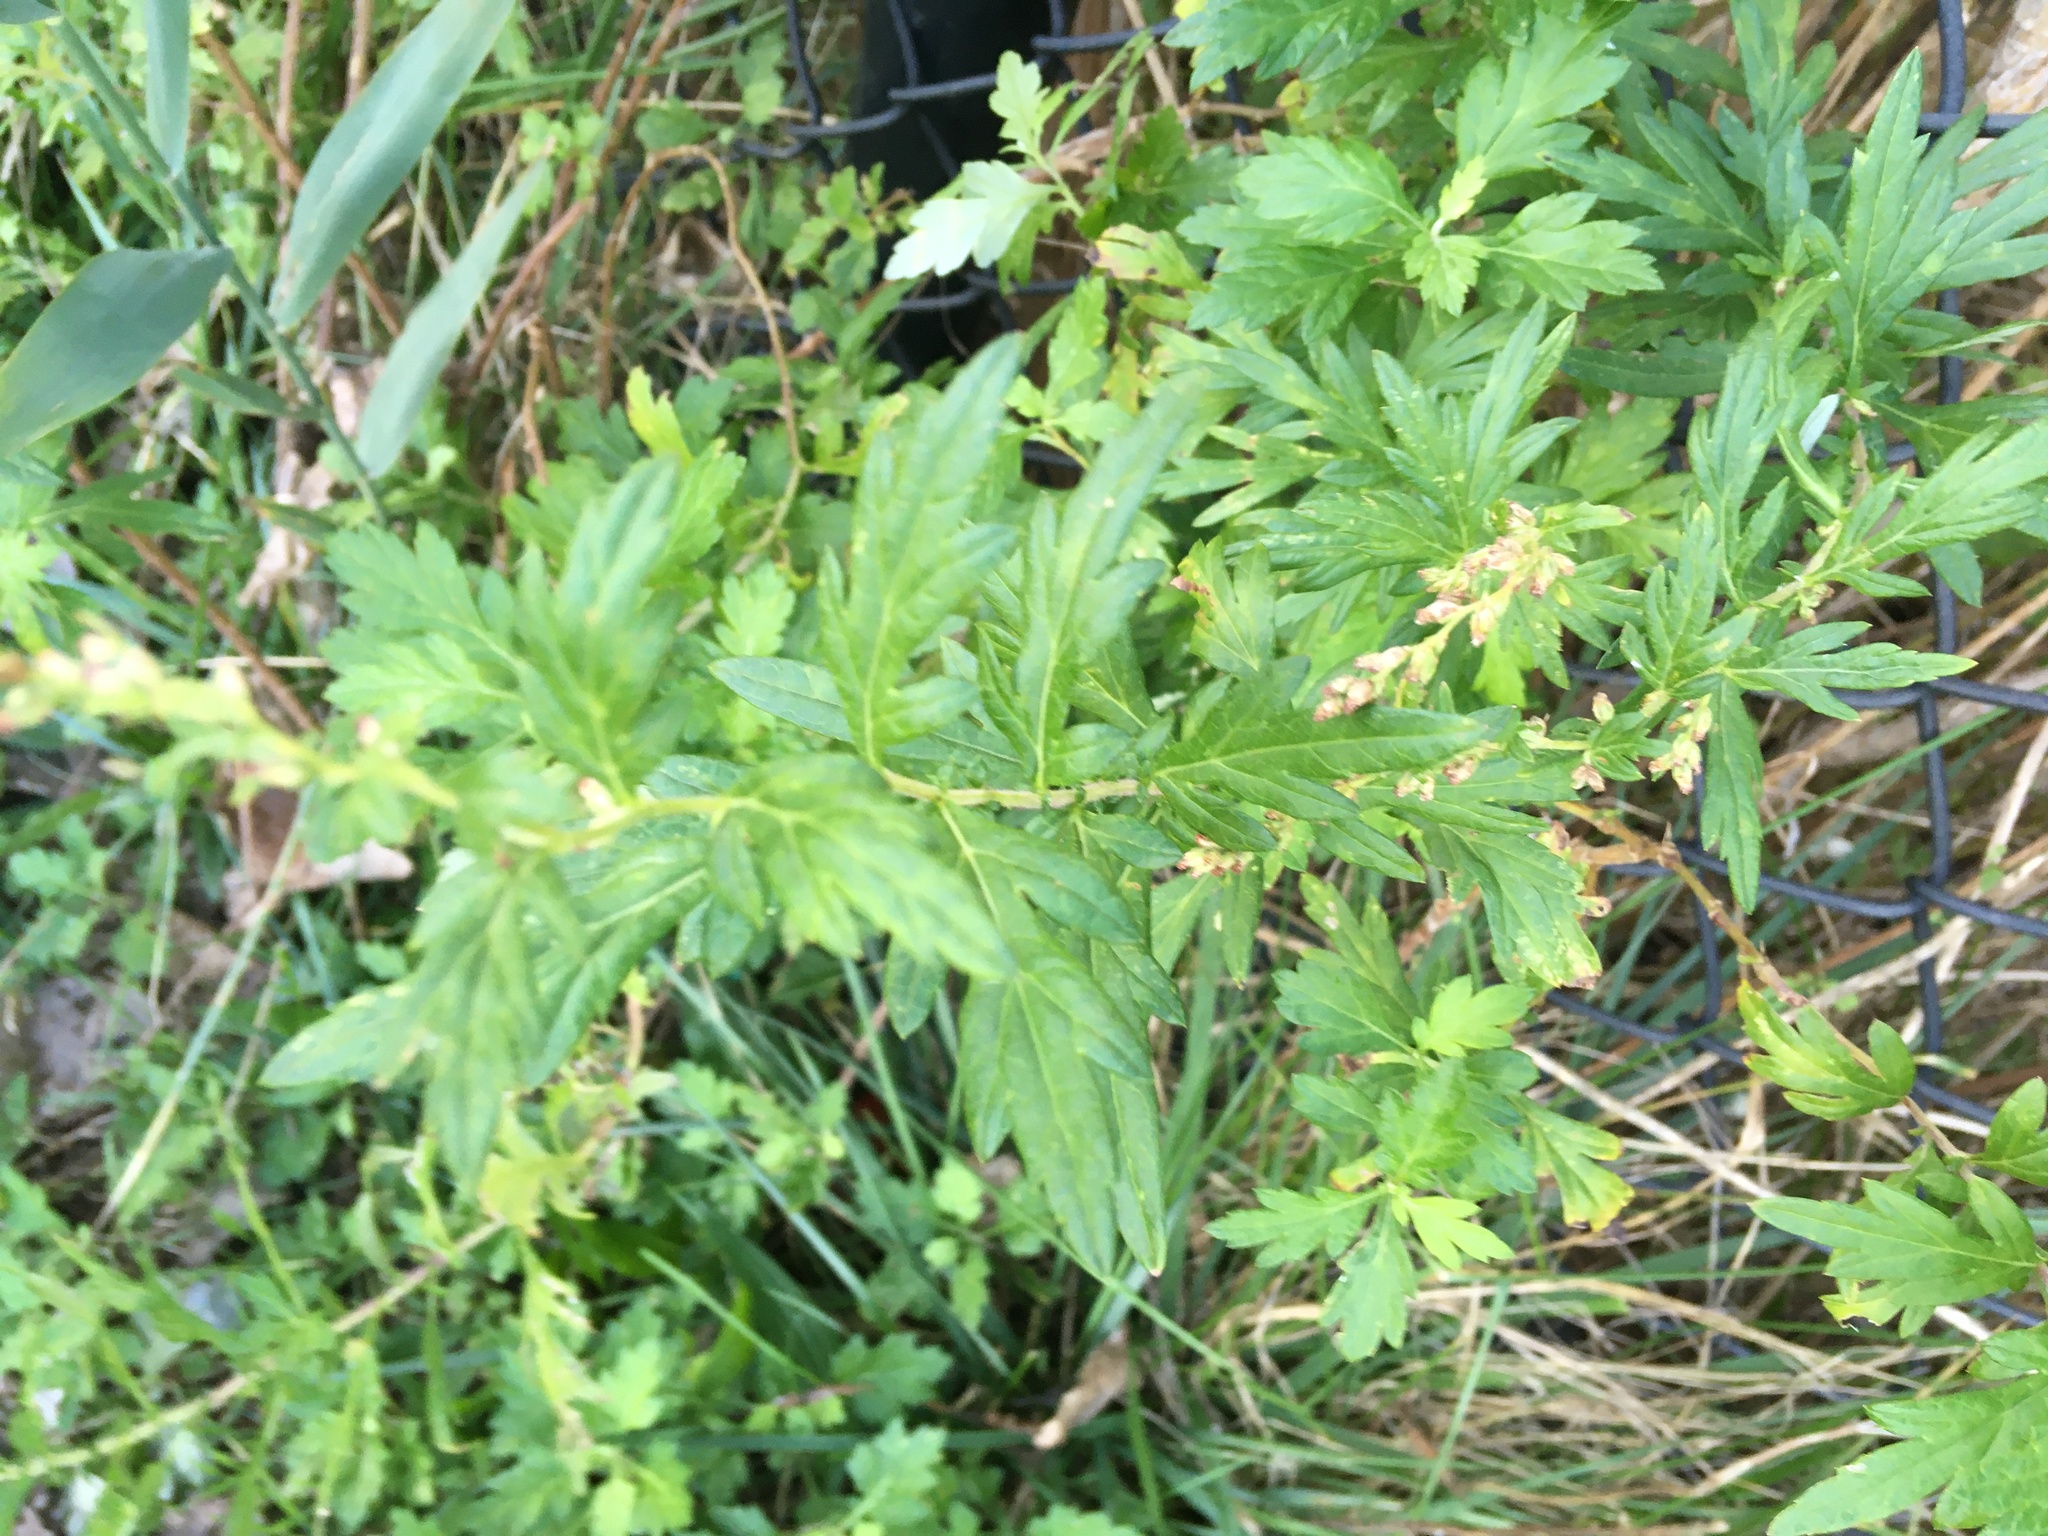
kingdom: Plantae
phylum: Tracheophyta
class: Magnoliopsida
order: Asterales
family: Asteraceae
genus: Artemisia
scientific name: Artemisia vulgaris
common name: Mugwort
